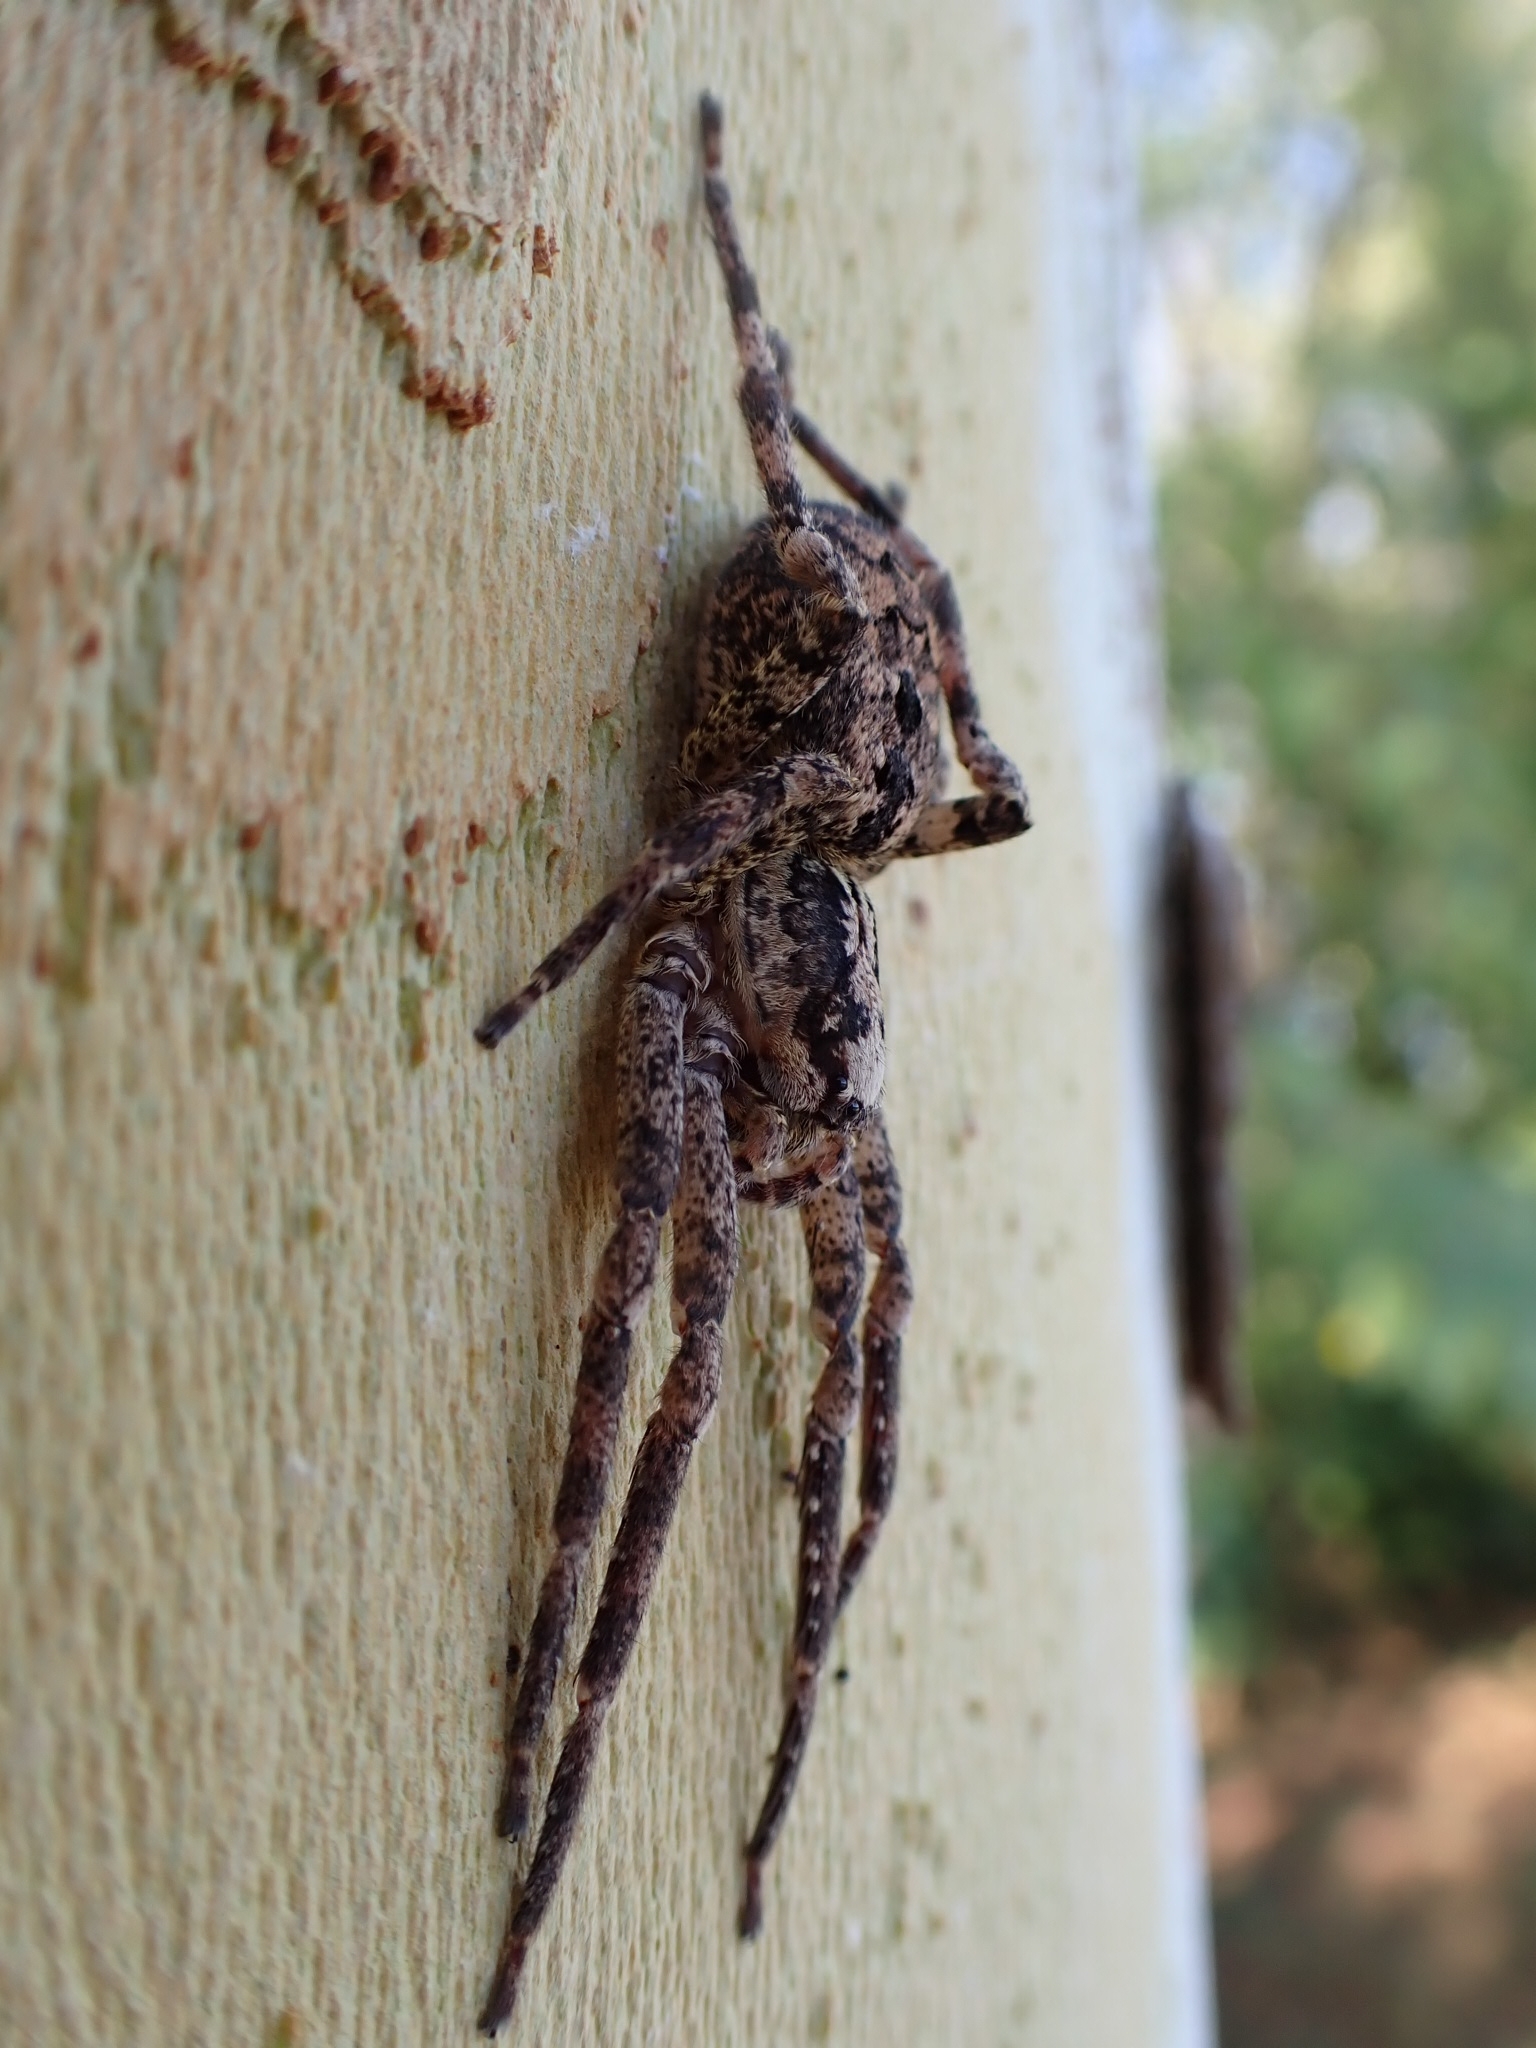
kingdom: Animalia
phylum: Arthropoda
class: Arachnida
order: Araneae
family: Zoropsidae
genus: Zoropsis
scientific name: Zoropsis spinimana
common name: Zoropsid spider
